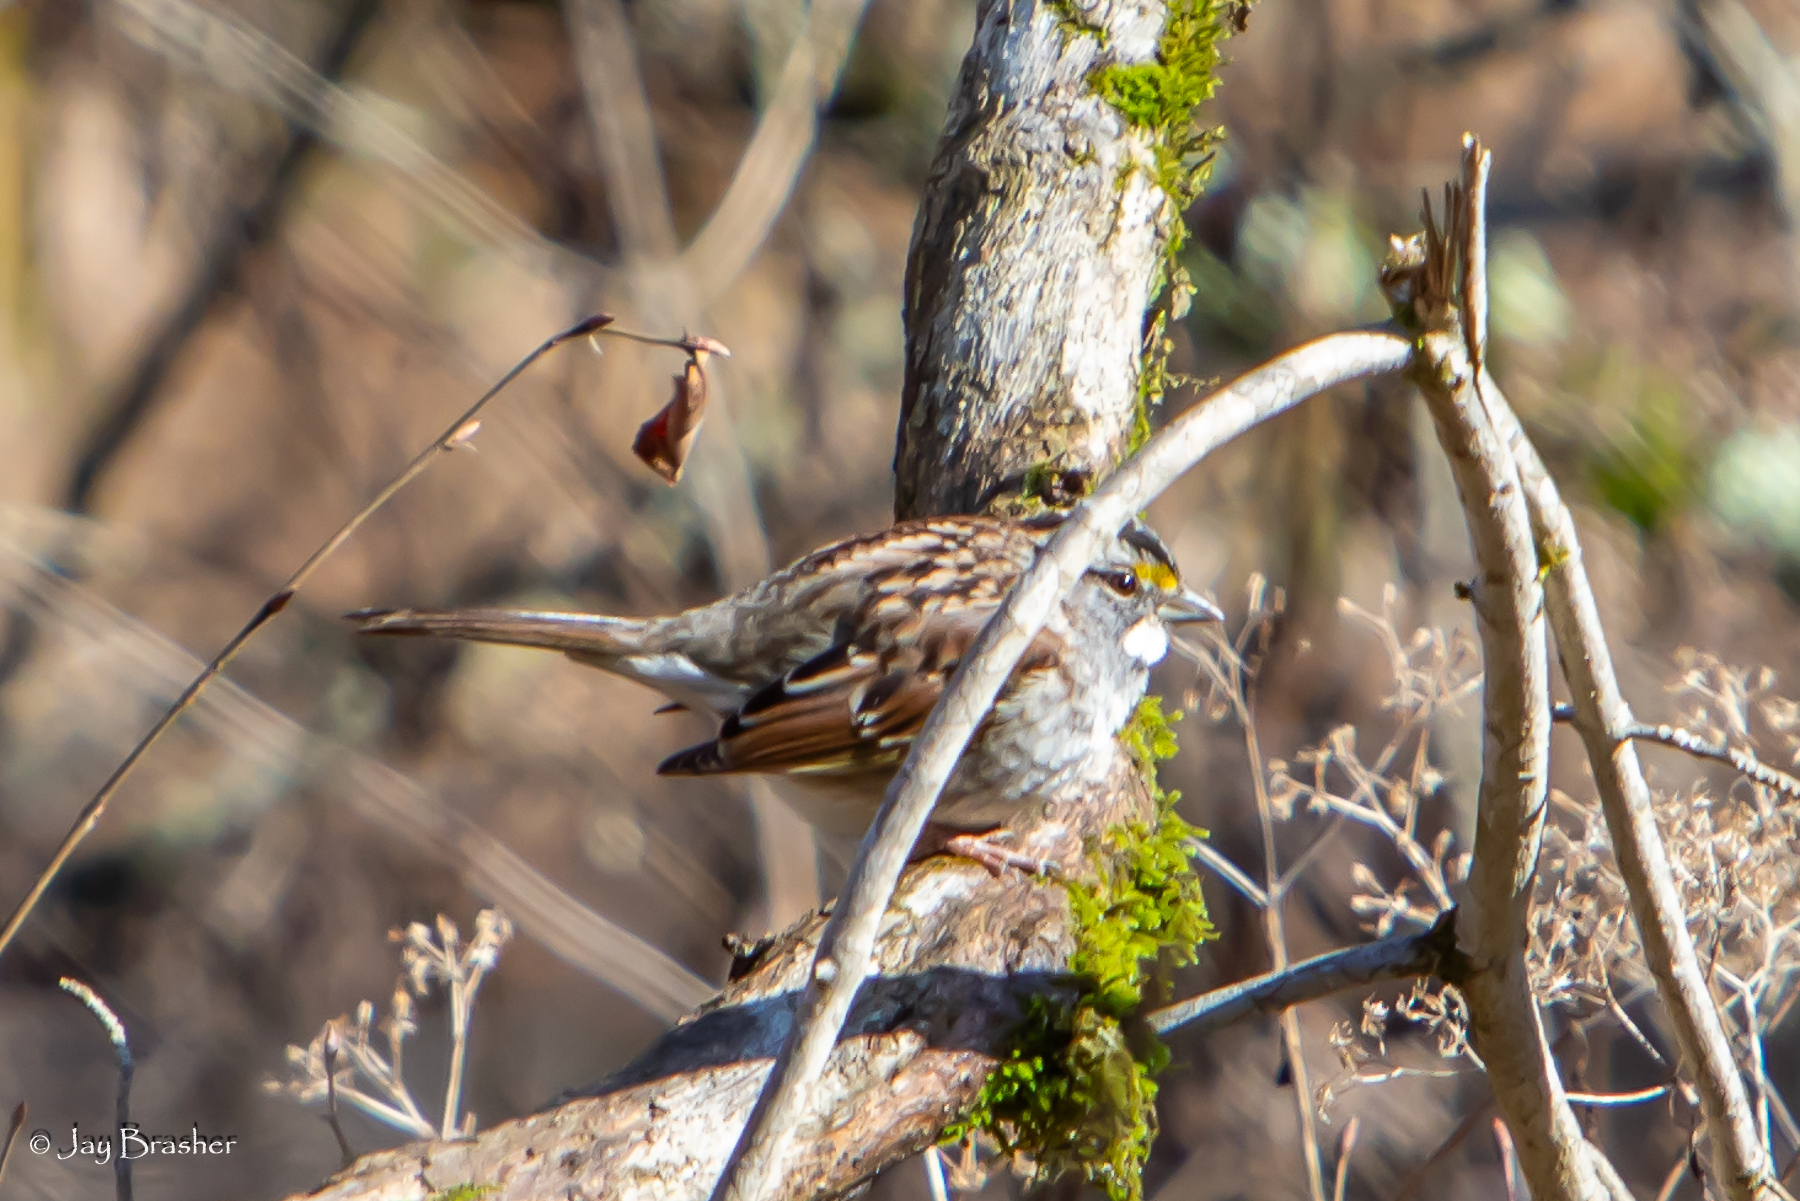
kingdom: Animalia
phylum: Chordata
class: Aves
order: Passeriformes
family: Passerellidae
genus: Zonotrichia
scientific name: Zonotrichia albicollis
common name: White-throated sparrow
